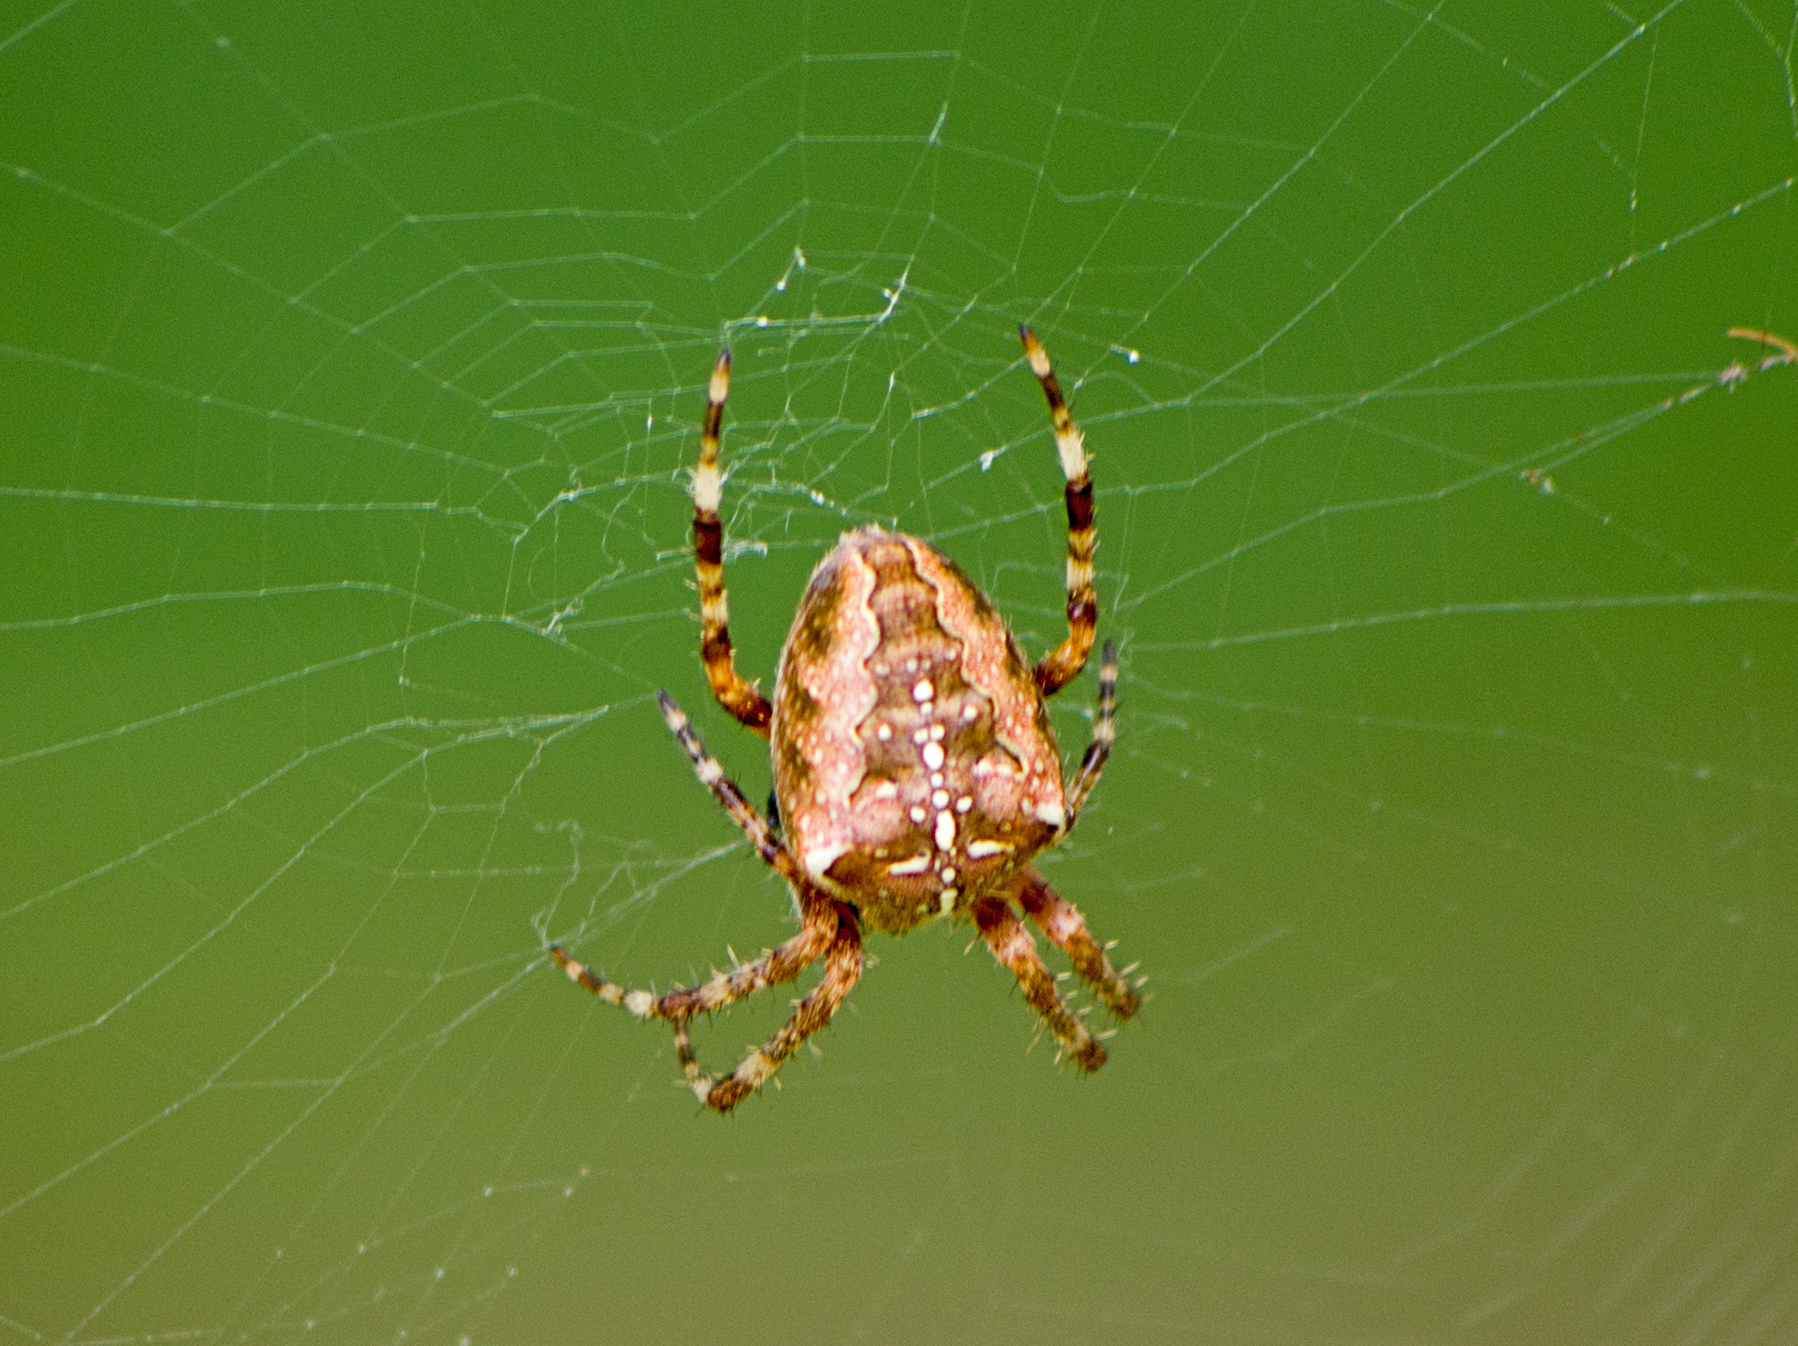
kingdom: Animalia
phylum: Arthropoda
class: Arachnida
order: Araneae
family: Araneidae
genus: Araneus
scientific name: Araneus diadematus
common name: Cross orbweaver
